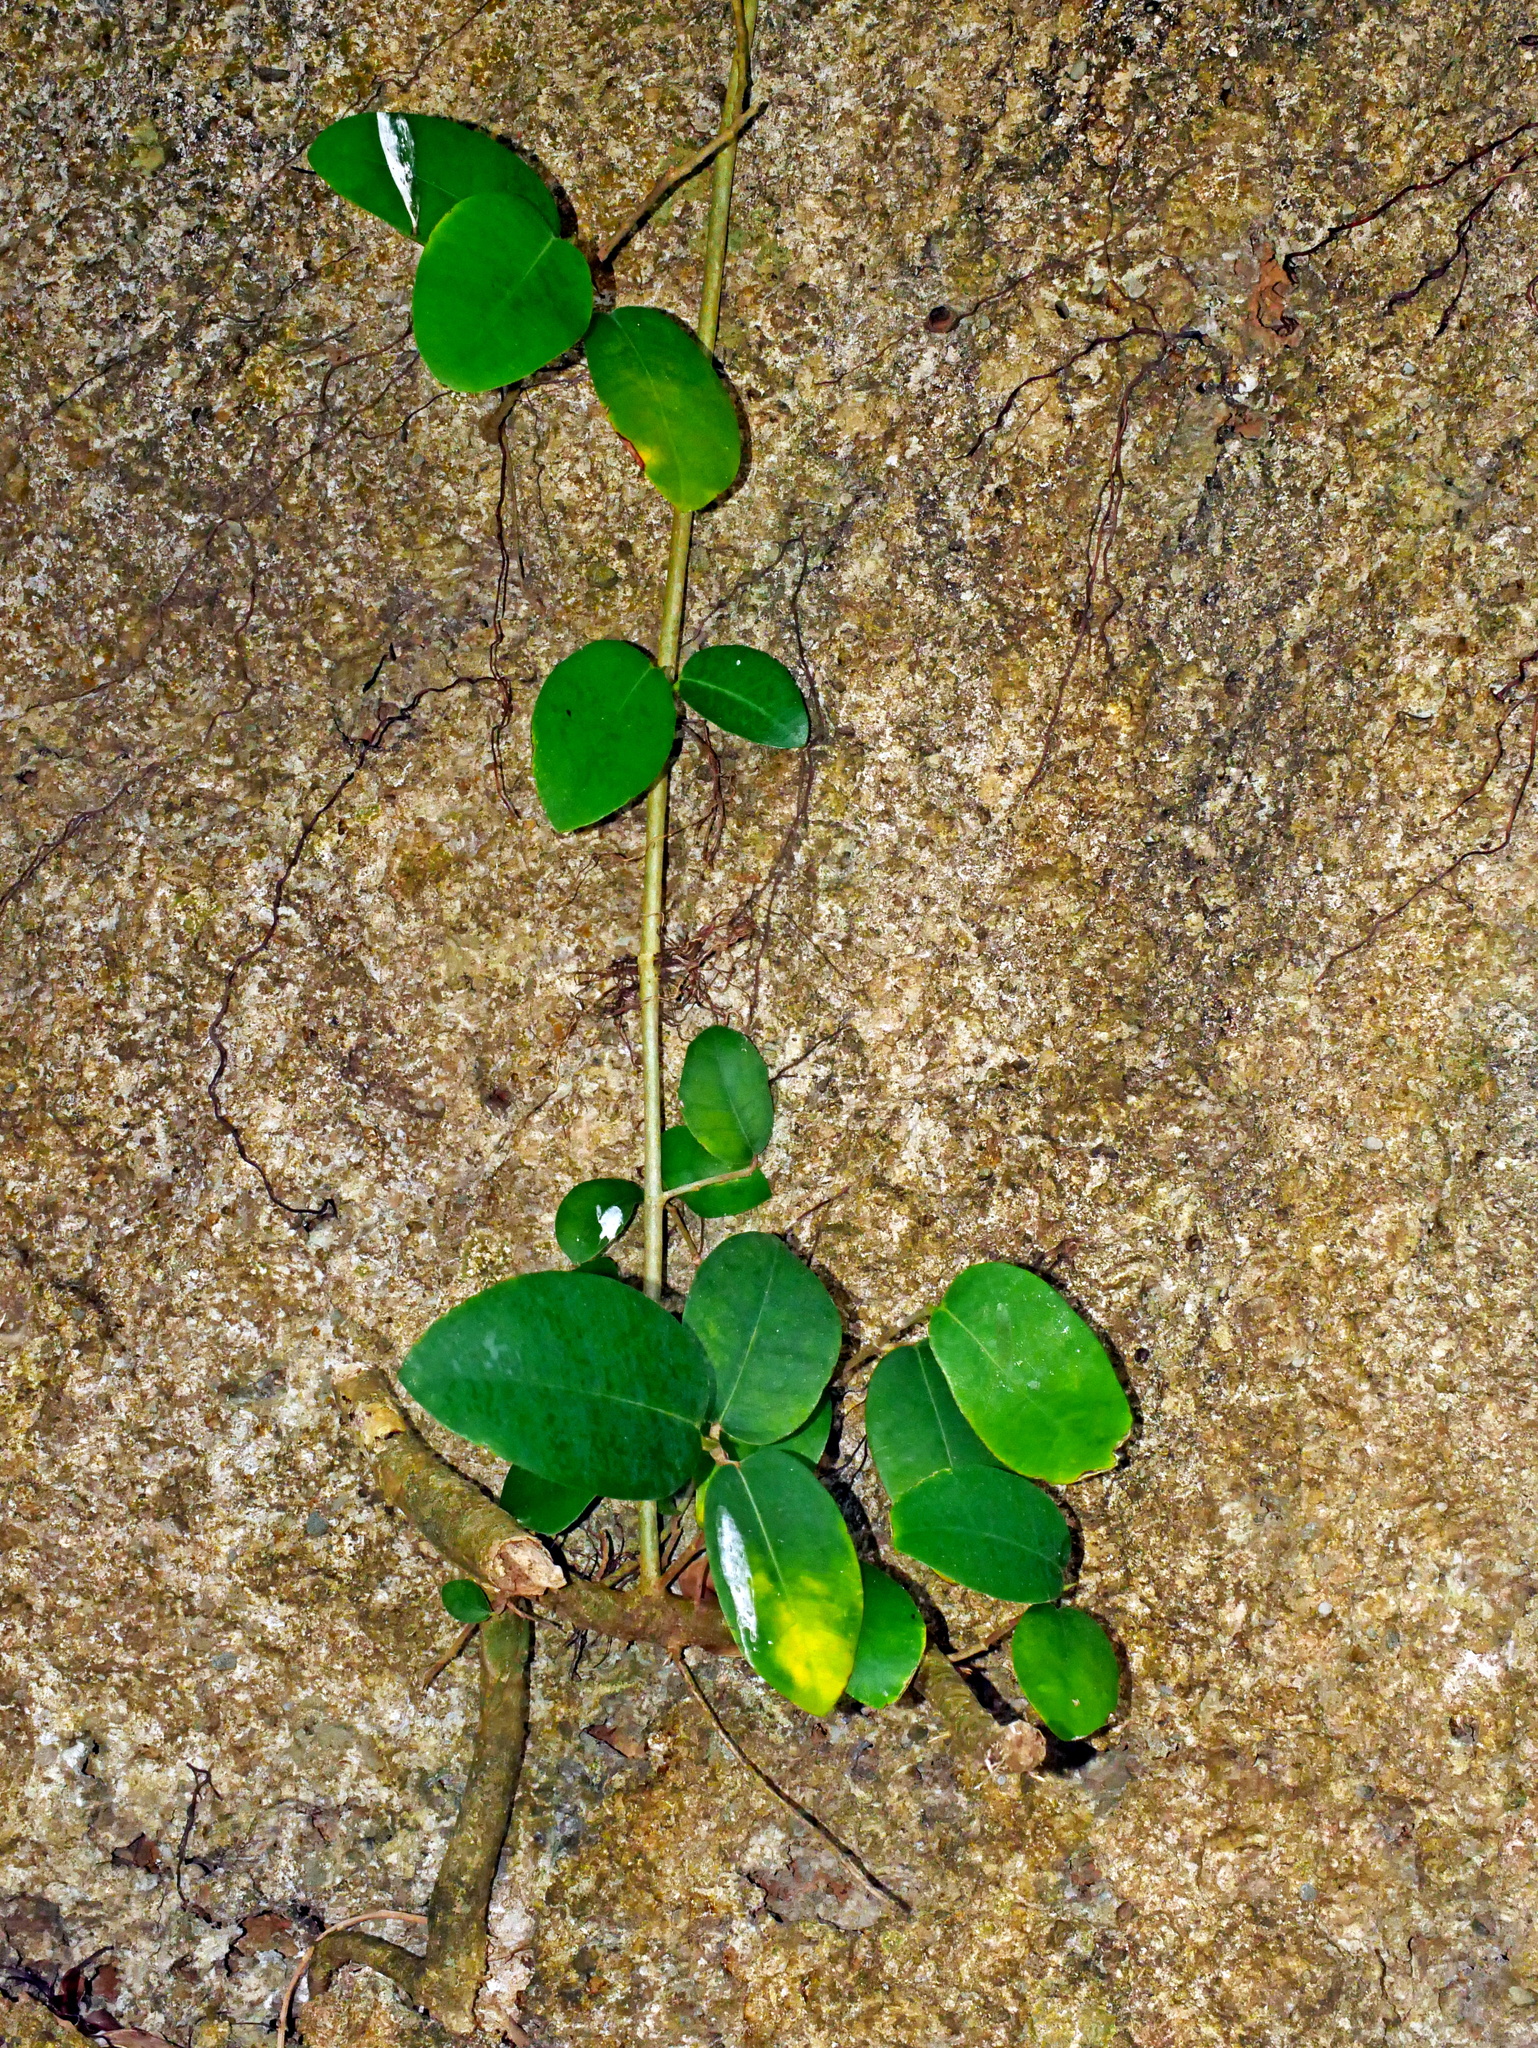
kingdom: Plantae
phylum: Tracheophyta
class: Magnoliopsida
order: Rosales
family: Moraceae
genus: Ficus
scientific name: Ficus tinctoria
